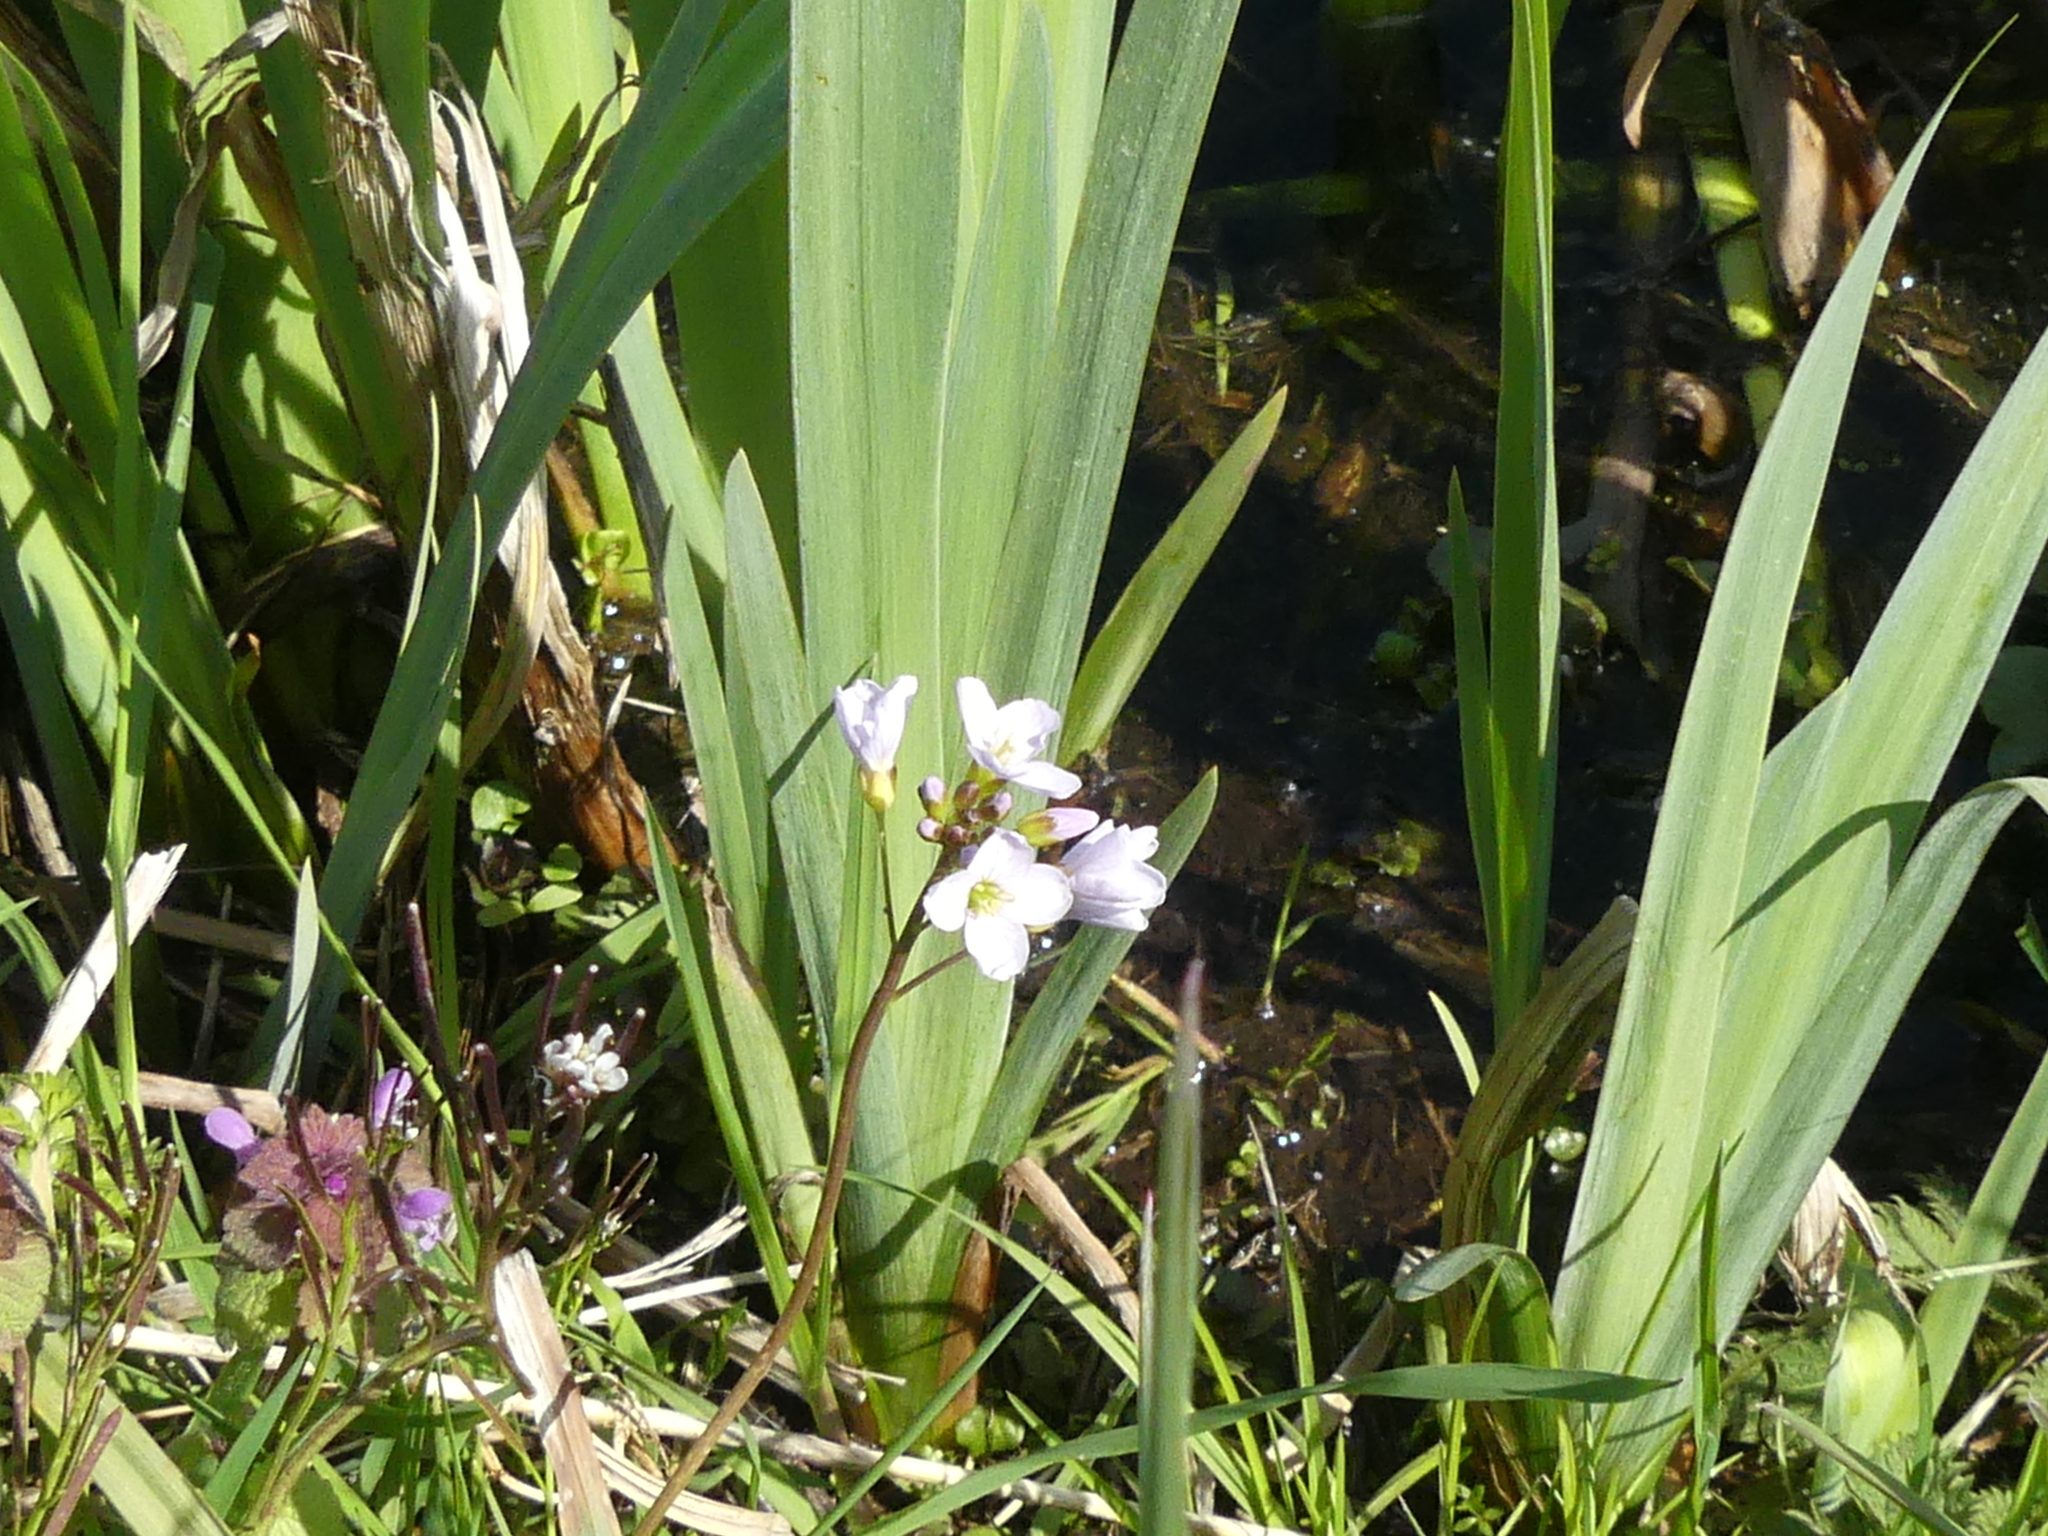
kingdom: Plantae
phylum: Tracheophyta
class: Magnoliopsida
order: Brassicales
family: Brassicaceae
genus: Cardamine
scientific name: Cardamine pratensis
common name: Cuckoo flower
